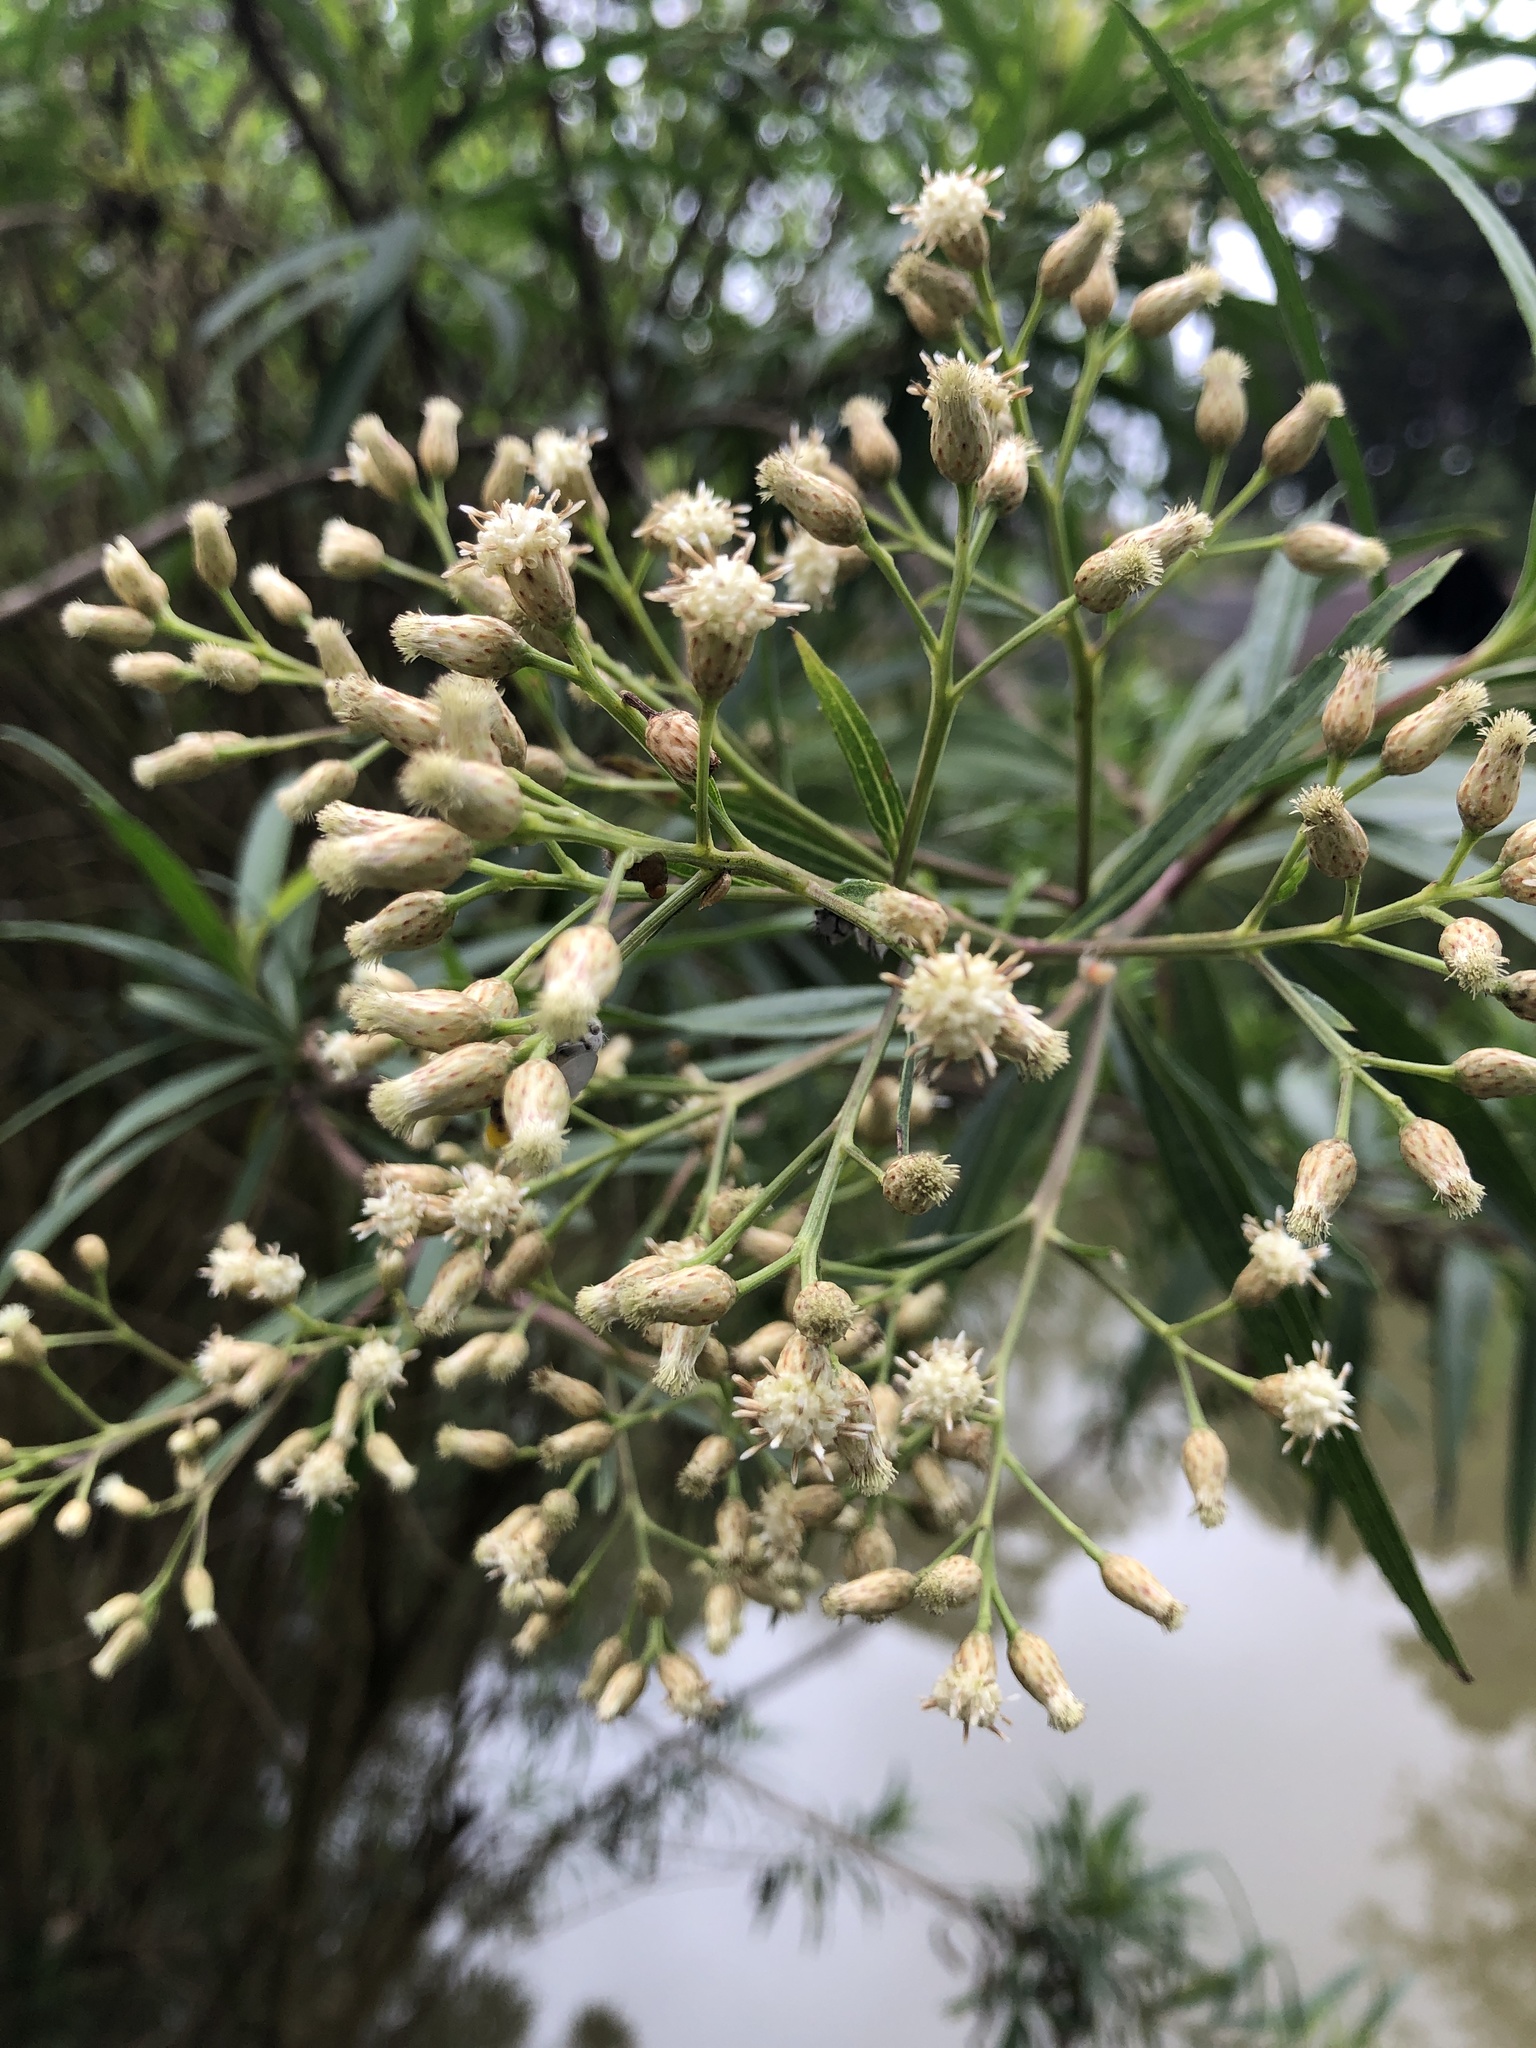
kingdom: Plantae
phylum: Tracheophyta
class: Magnoliopsida
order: Asterales
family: Asteraceae
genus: Baccharis
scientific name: Baccharis salicifolia
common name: Sticky baccharis
